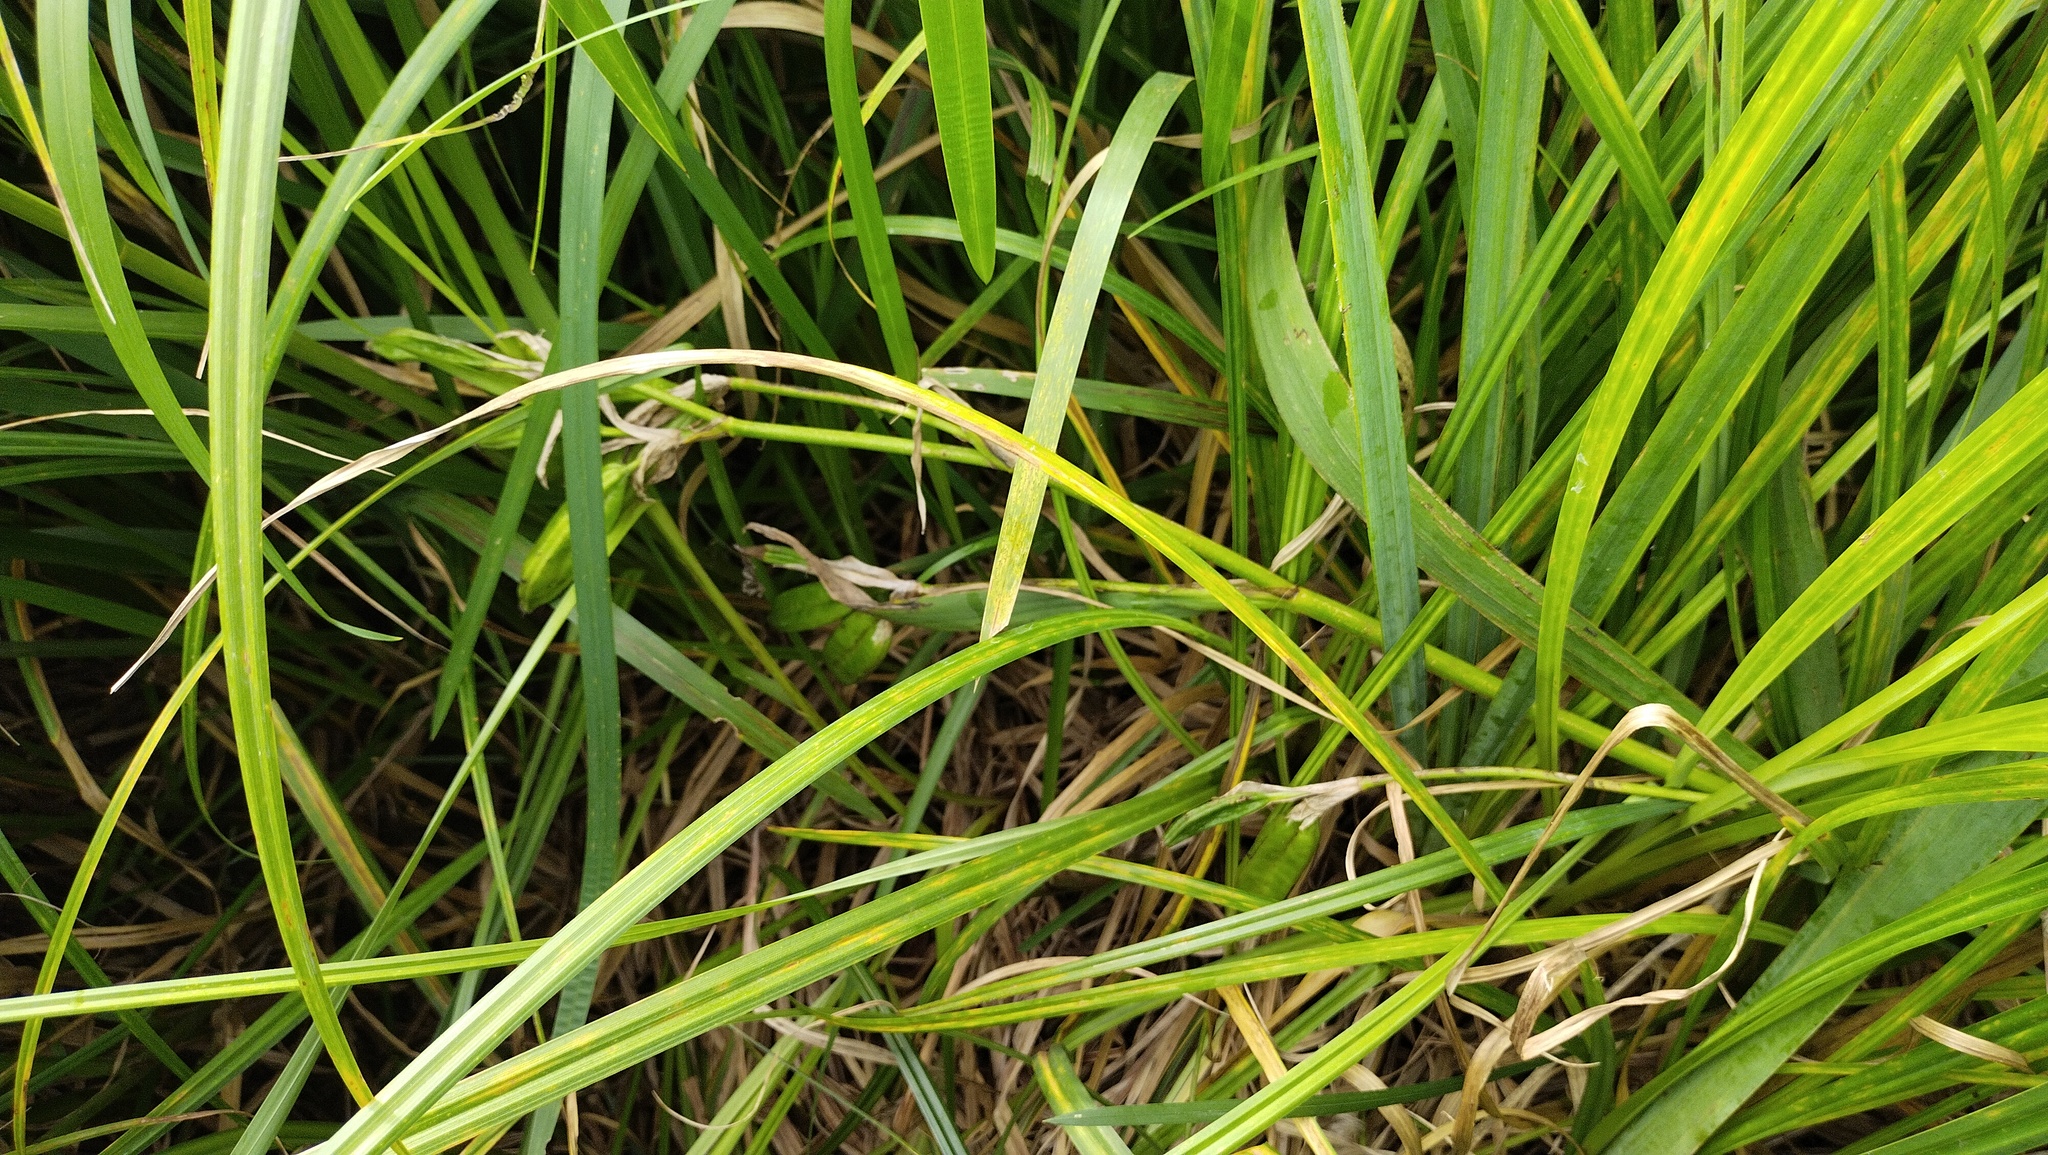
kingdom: Plantae
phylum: Tracheophyta
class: Liliopsida
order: Asparagales
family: Iridaceae
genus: Iris
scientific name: Iris pseudacorus
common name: Yellow flag
